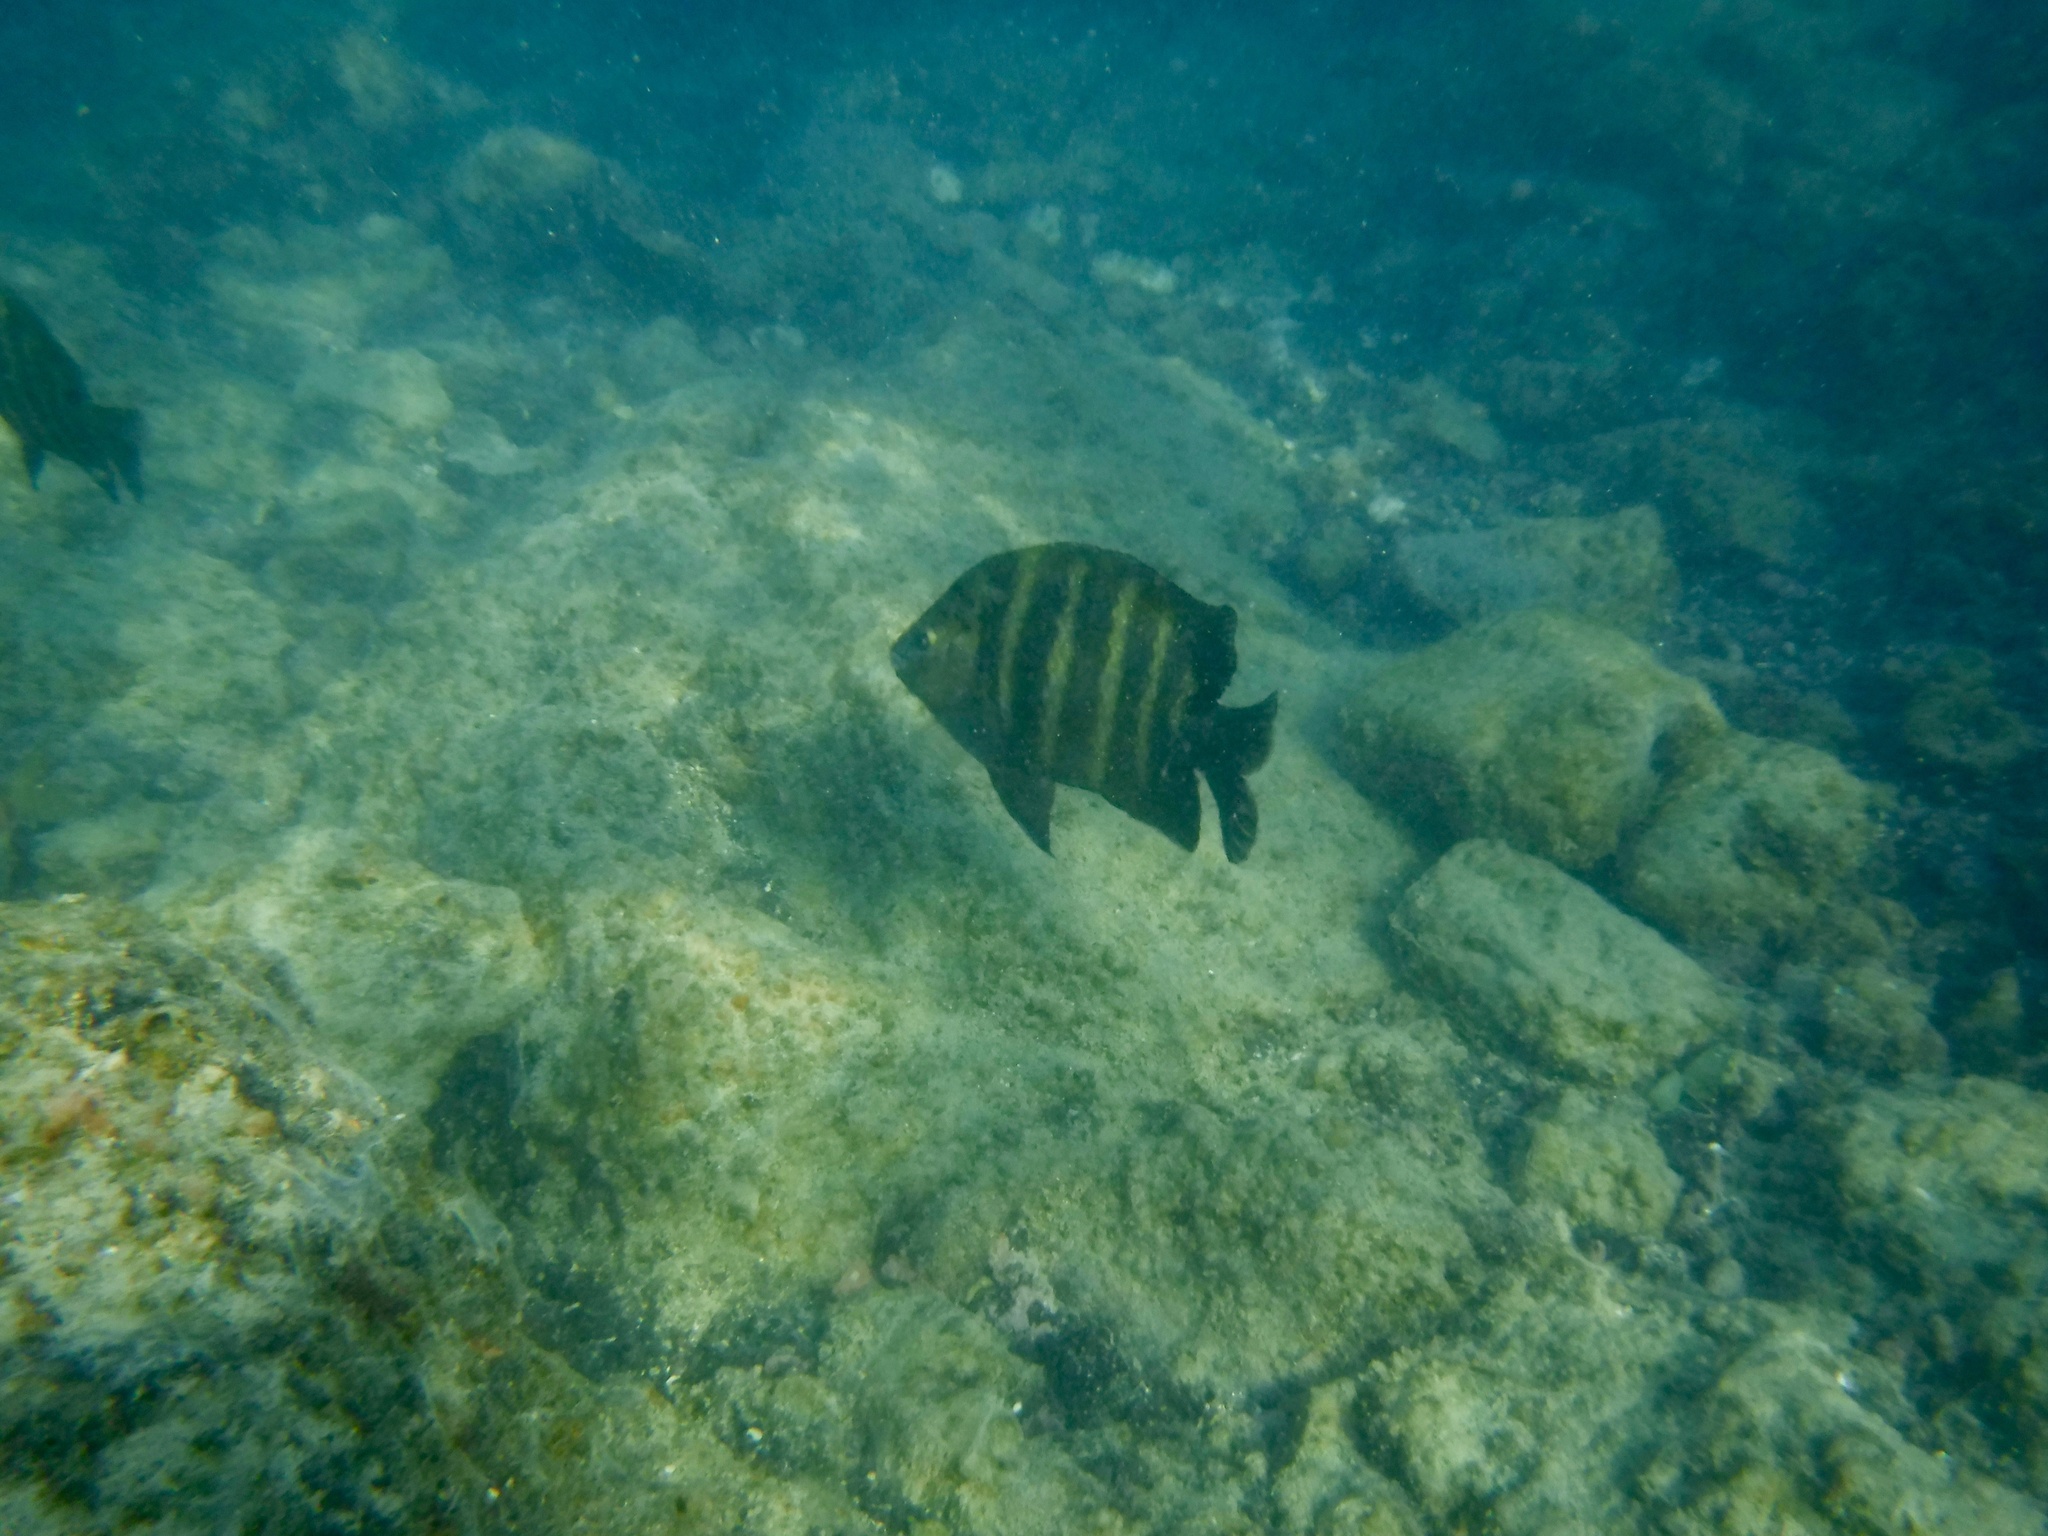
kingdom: Animalia
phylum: Chordata
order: Perciformes
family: Pomacentridae
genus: Abudefduf
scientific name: Abudefduf sordidus
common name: Blackspot sergeant
